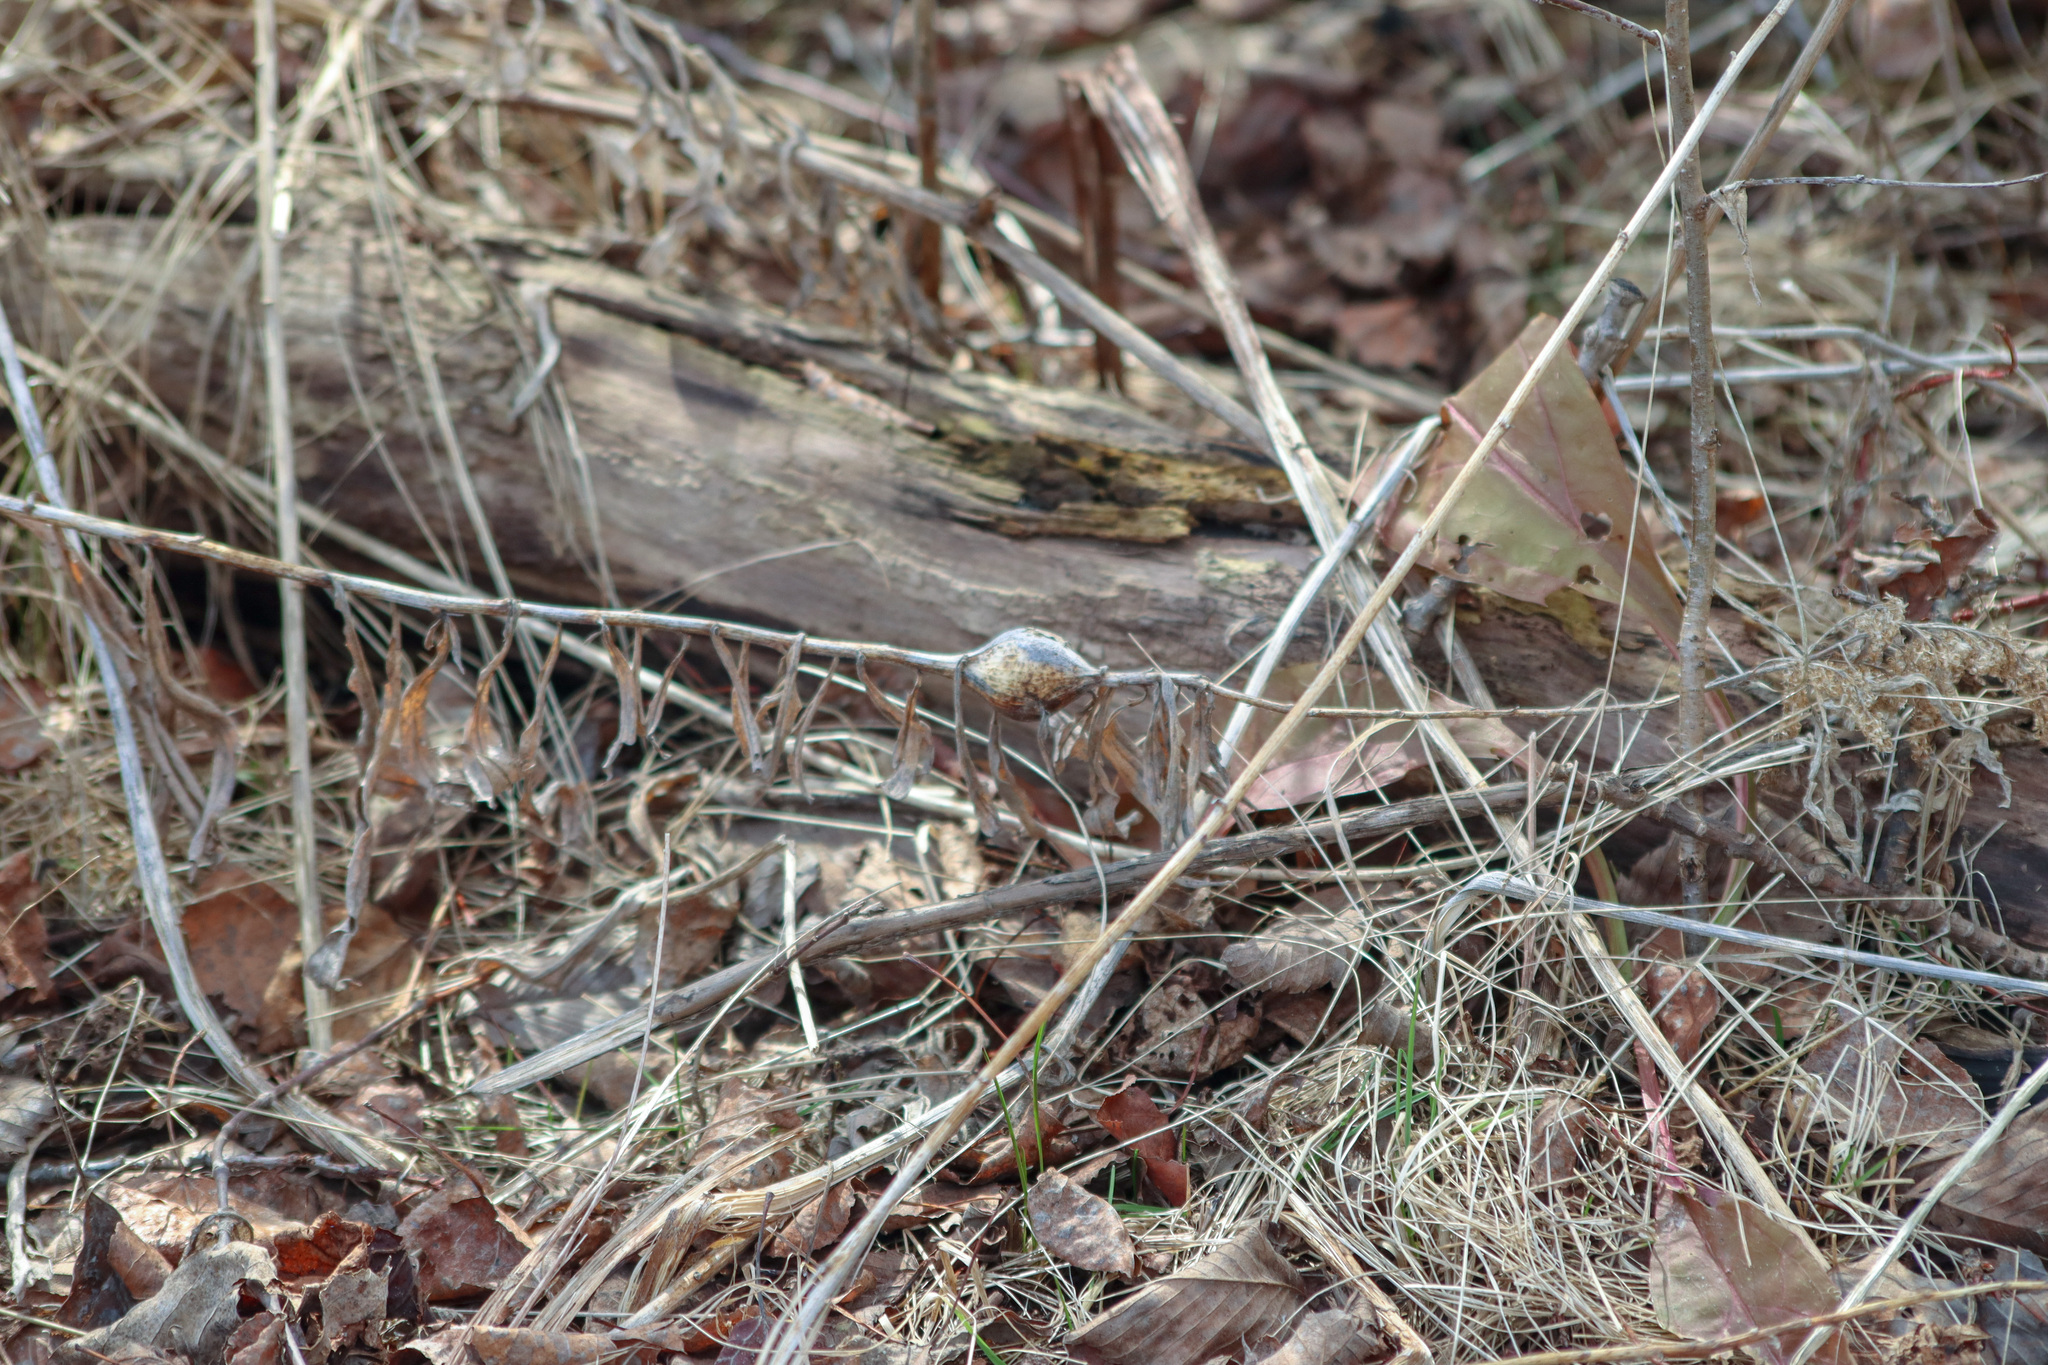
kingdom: Animalia
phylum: Arthropoda
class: Insecta
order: Diptera
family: Tephritidae
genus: Eurosta
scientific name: Eurosta solidaginis
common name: Goldenrod gall fly
